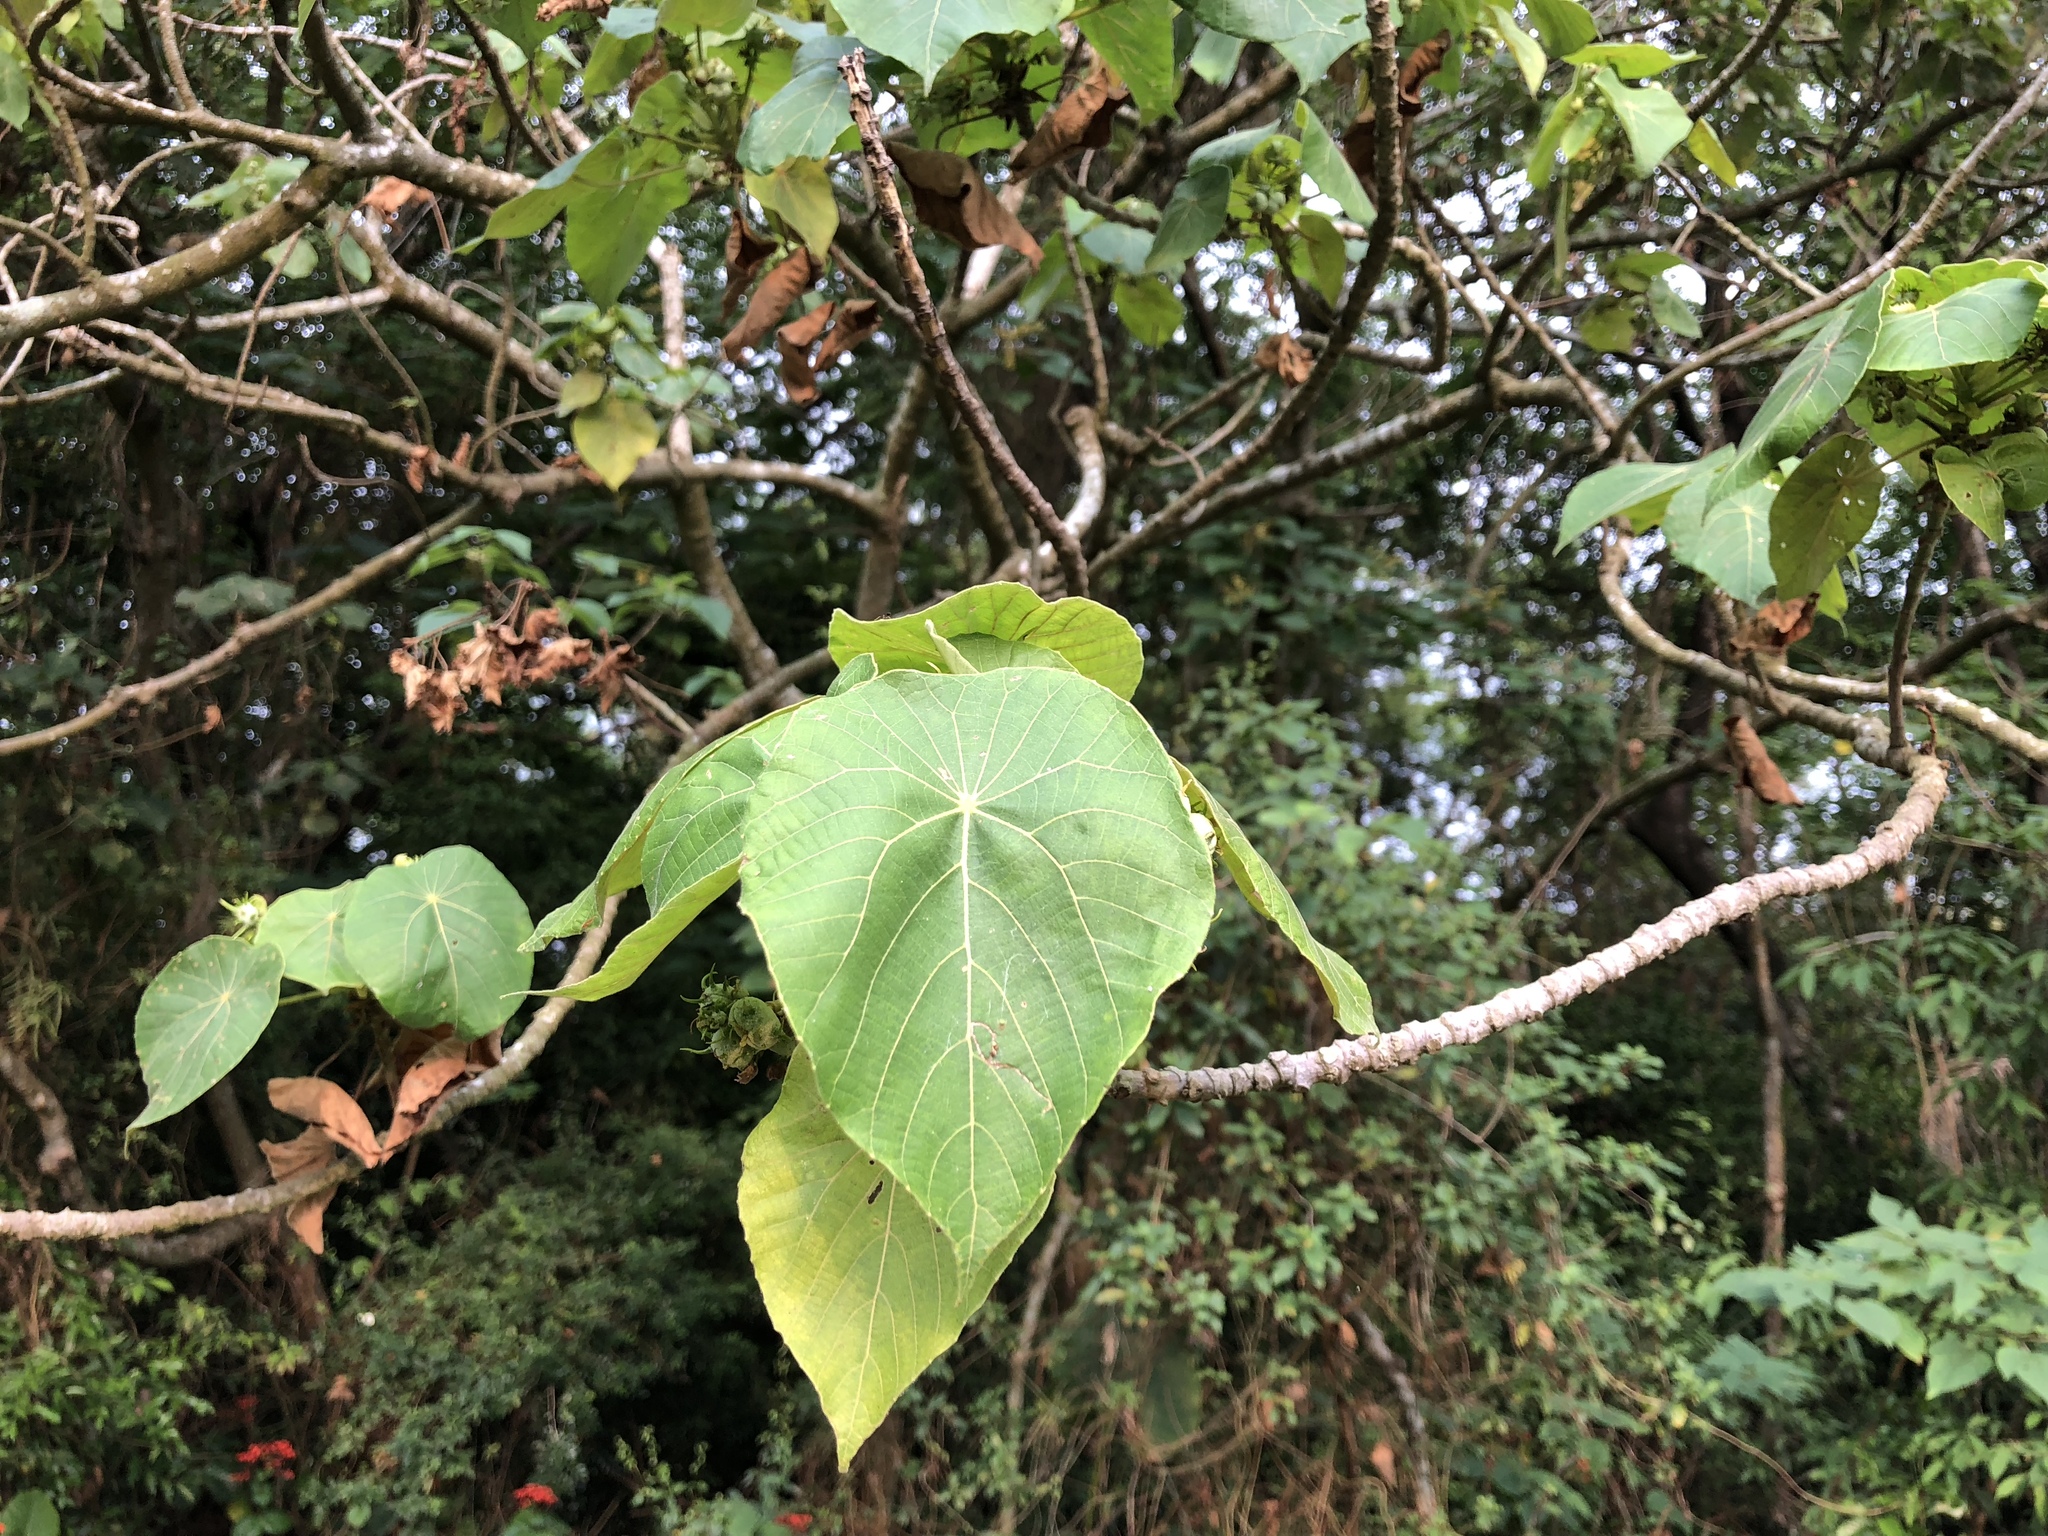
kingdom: Plantae
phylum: Tracheophyta
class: Magnoliopsida
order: Malpighiales
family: Euphorbiaceae
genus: Macaranga
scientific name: Macaranga tanarius
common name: Parasol leaf tree
